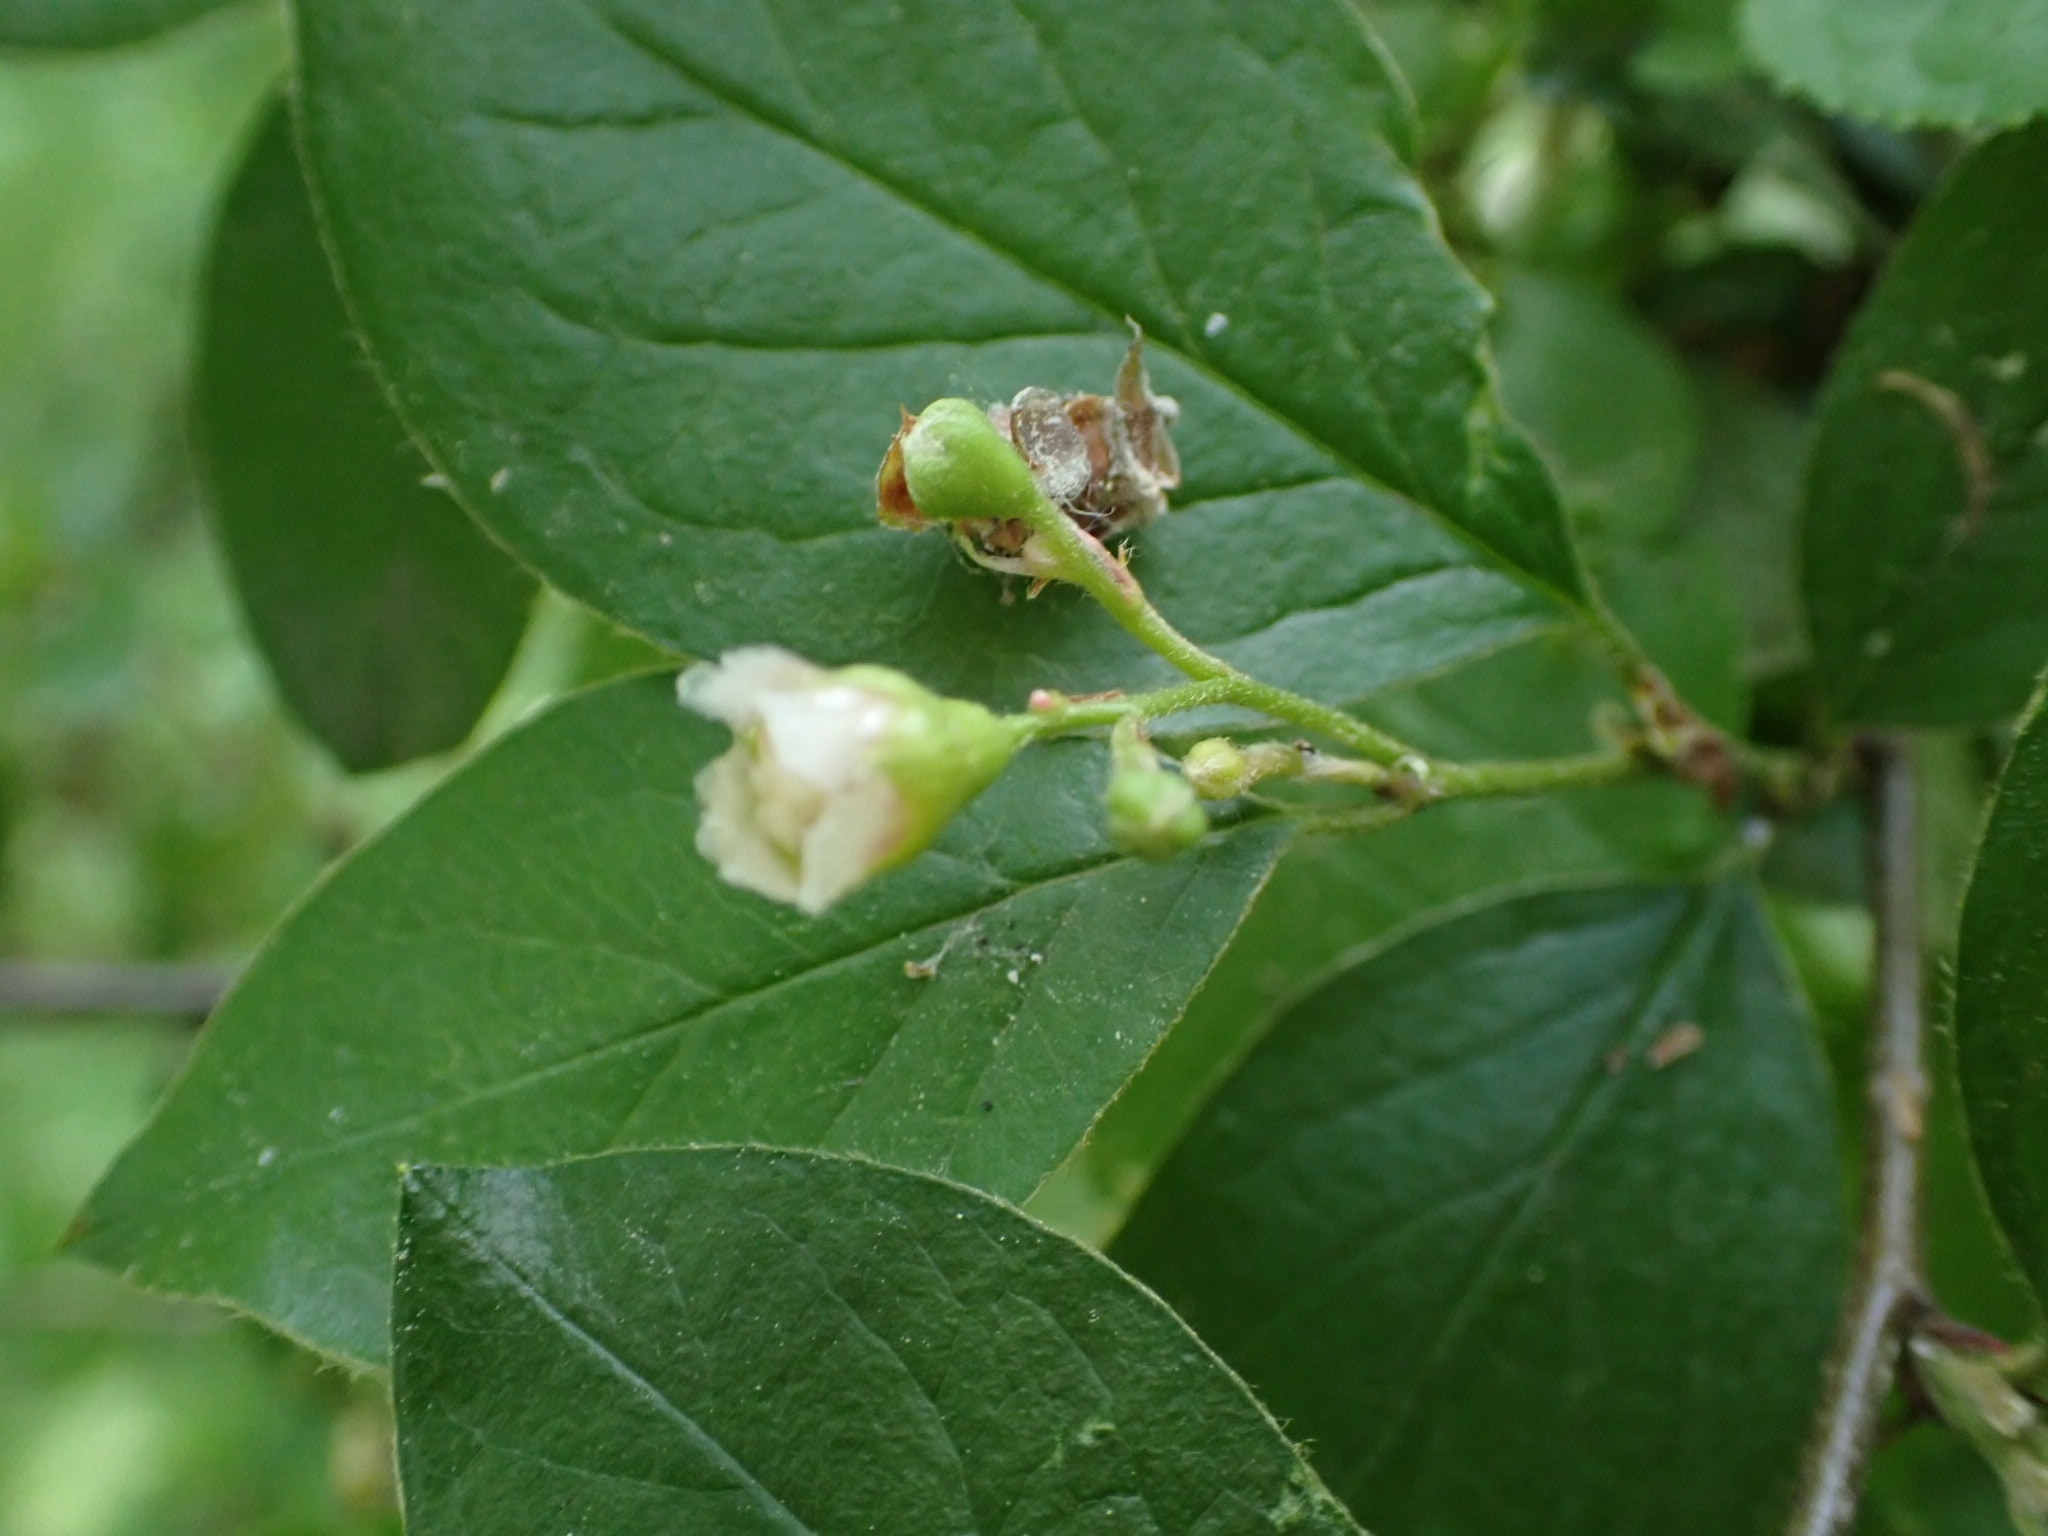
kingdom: Plantae
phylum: Tracheophyta
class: Magnoliopsida
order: Rosales
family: Rosaceae
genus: Cotoneaster
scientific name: Cotoneaster acutifolius
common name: Peking cotoneaster
